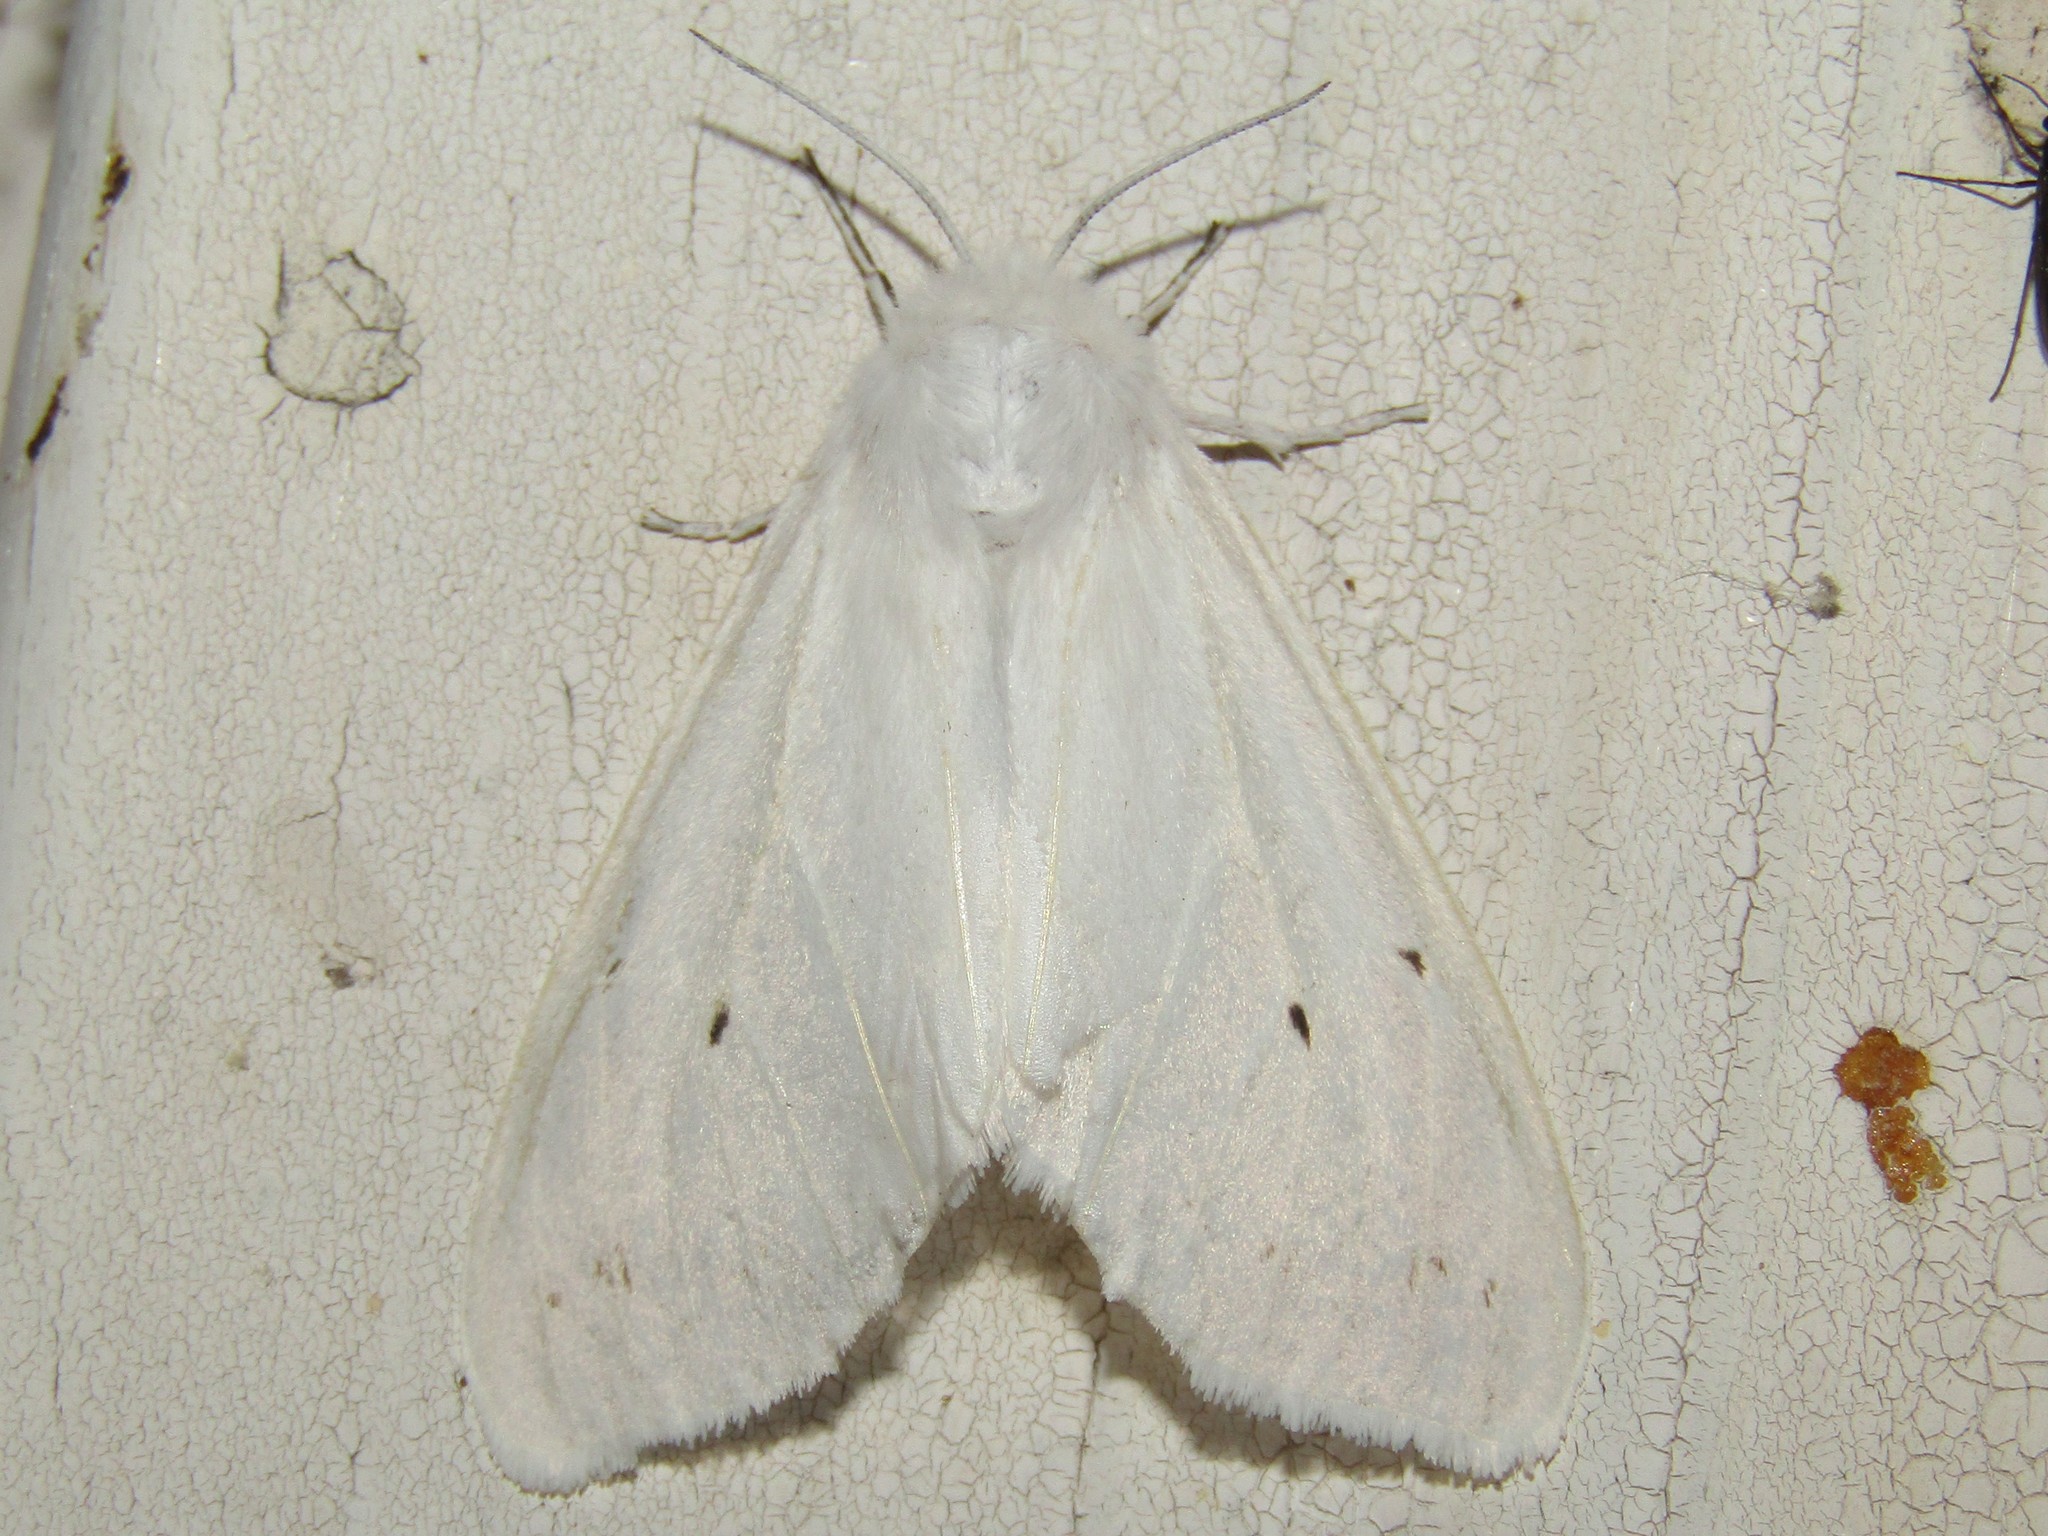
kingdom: Animalia
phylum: Arthropoda
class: Insecta
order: Lepidoptera
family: Erebidae
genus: Spilosoma
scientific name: Spilosoma congrua
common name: Agreeable tiger moth
